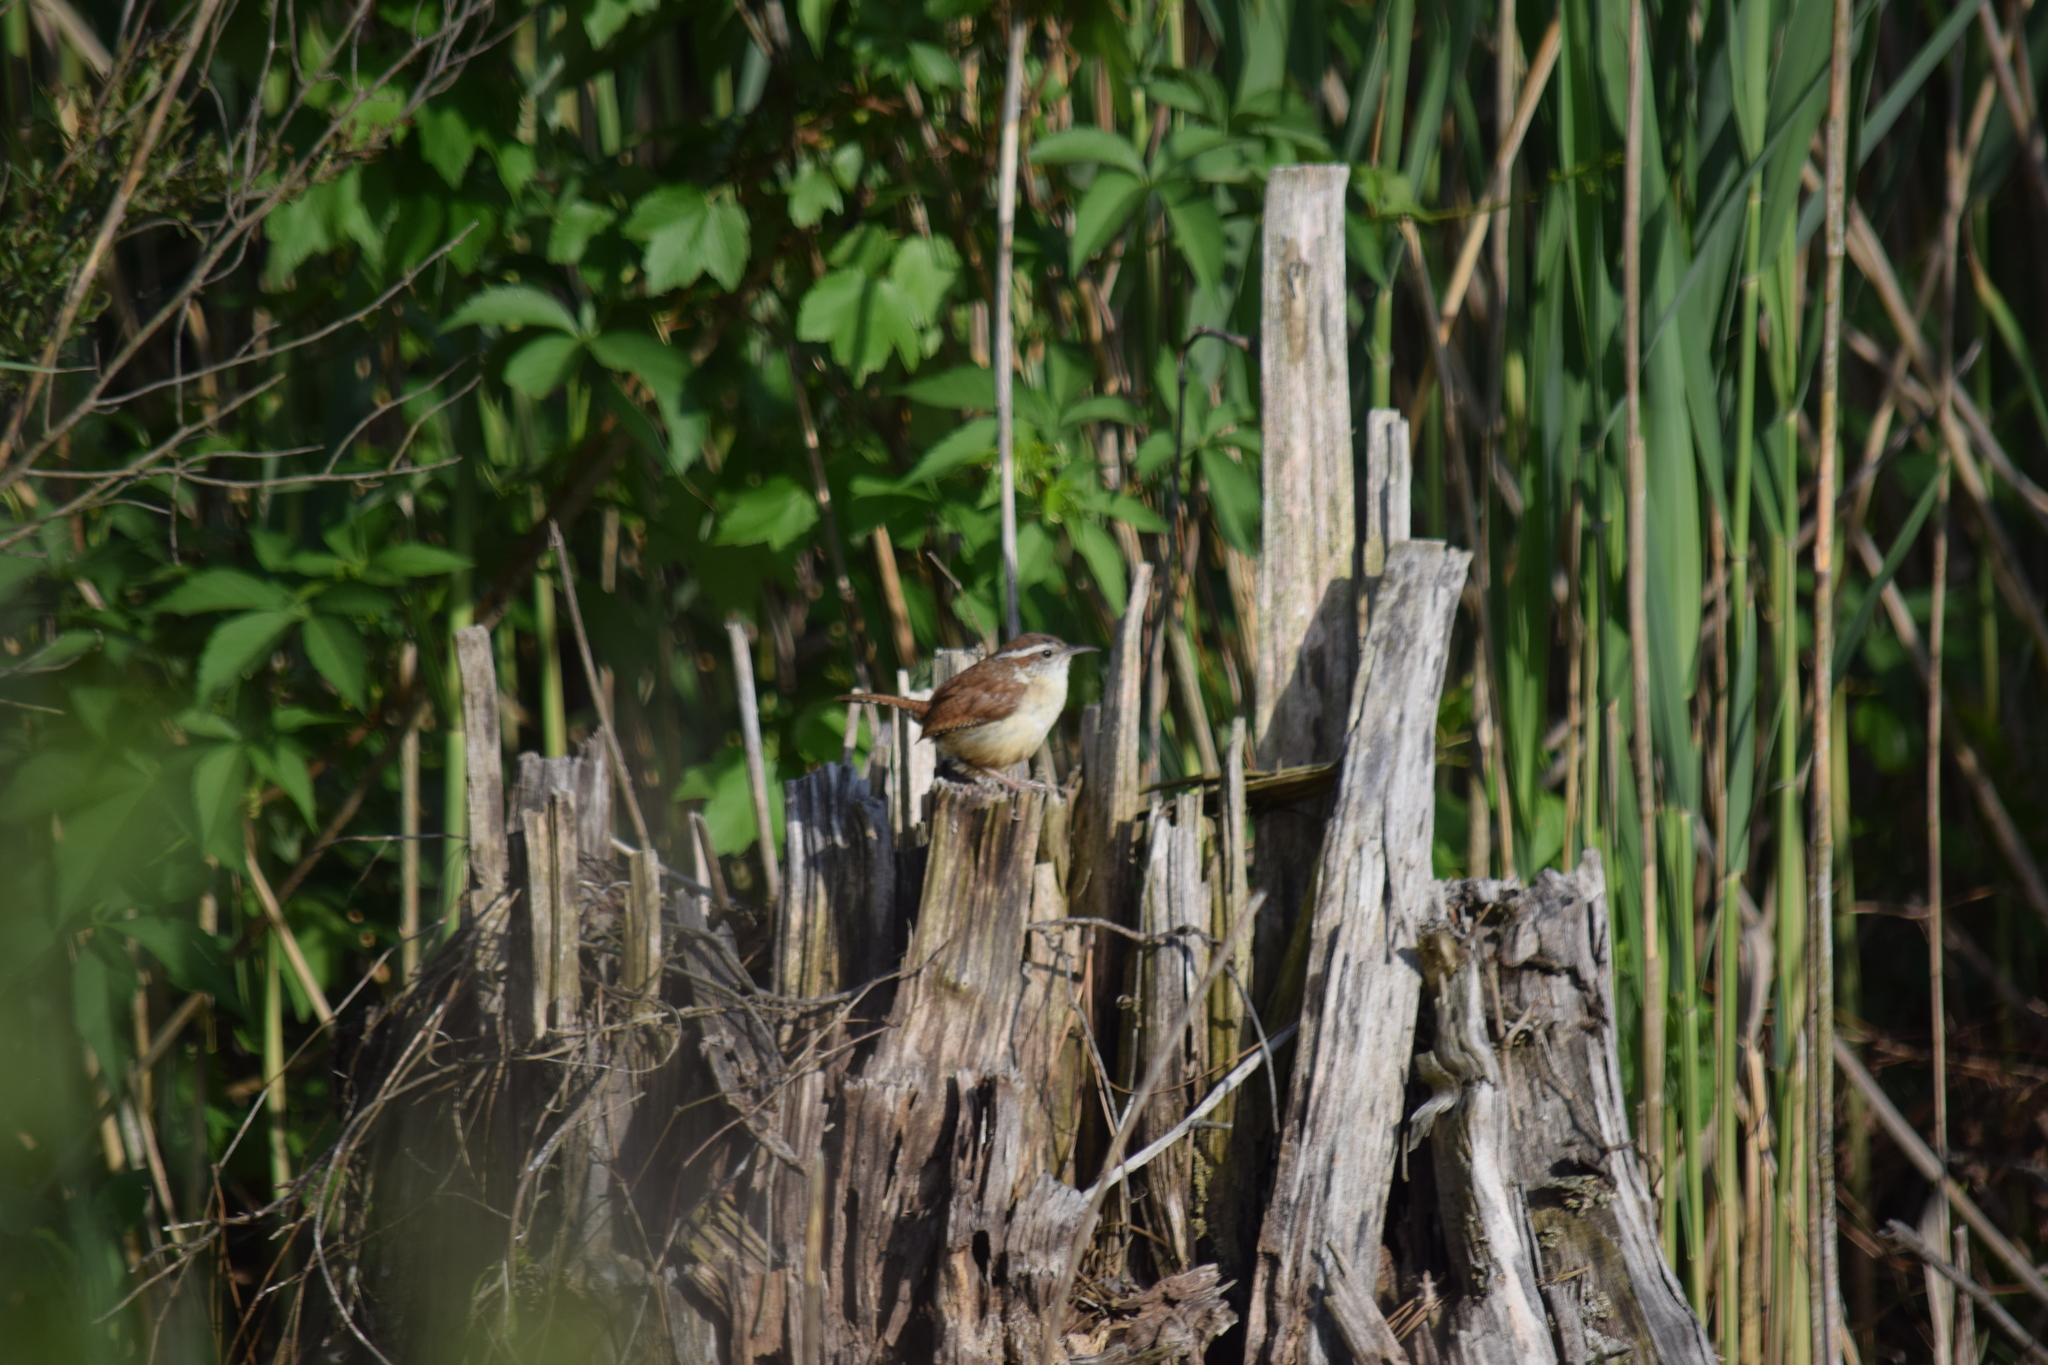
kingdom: Animalia
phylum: Chordata
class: Aves
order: Passeriformes
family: Troglodytidae
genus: Thryothorus
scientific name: Thryothorus ludovicianus
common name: Carolina wren
